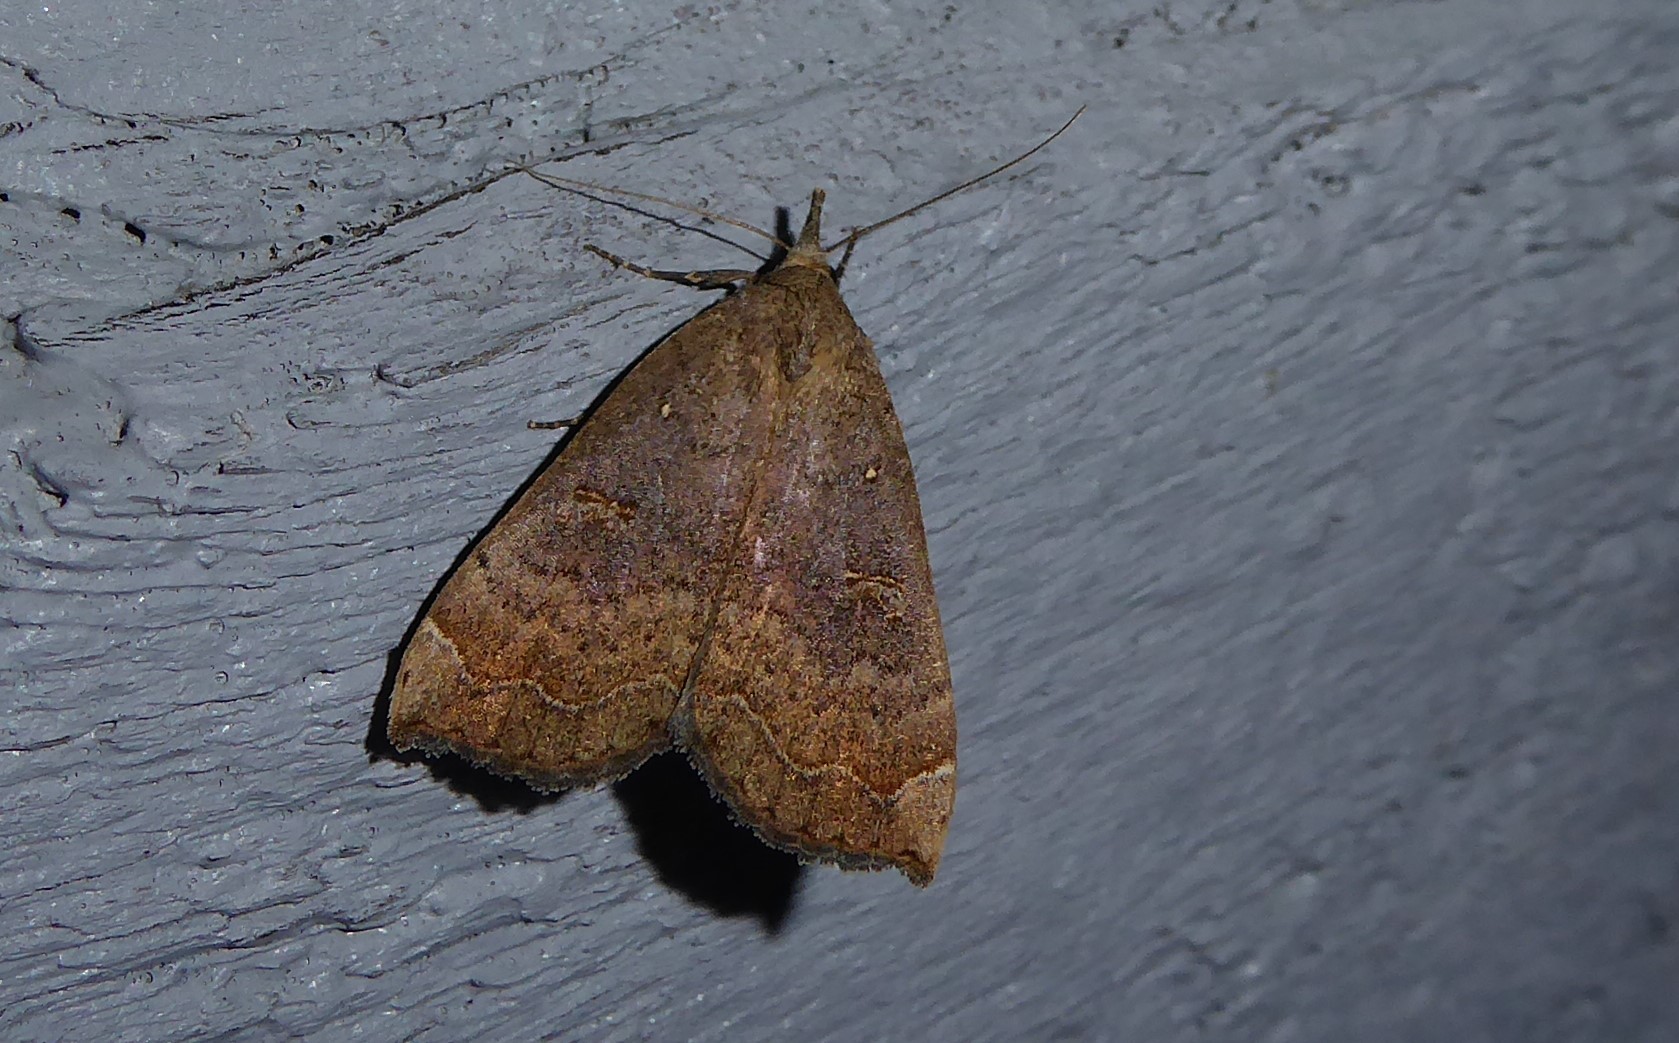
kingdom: Animalia
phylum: Arthropoda
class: Insecta
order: Lepidoptera
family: Erebidae
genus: Rhapsa
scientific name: Rhapsa scotosialis
